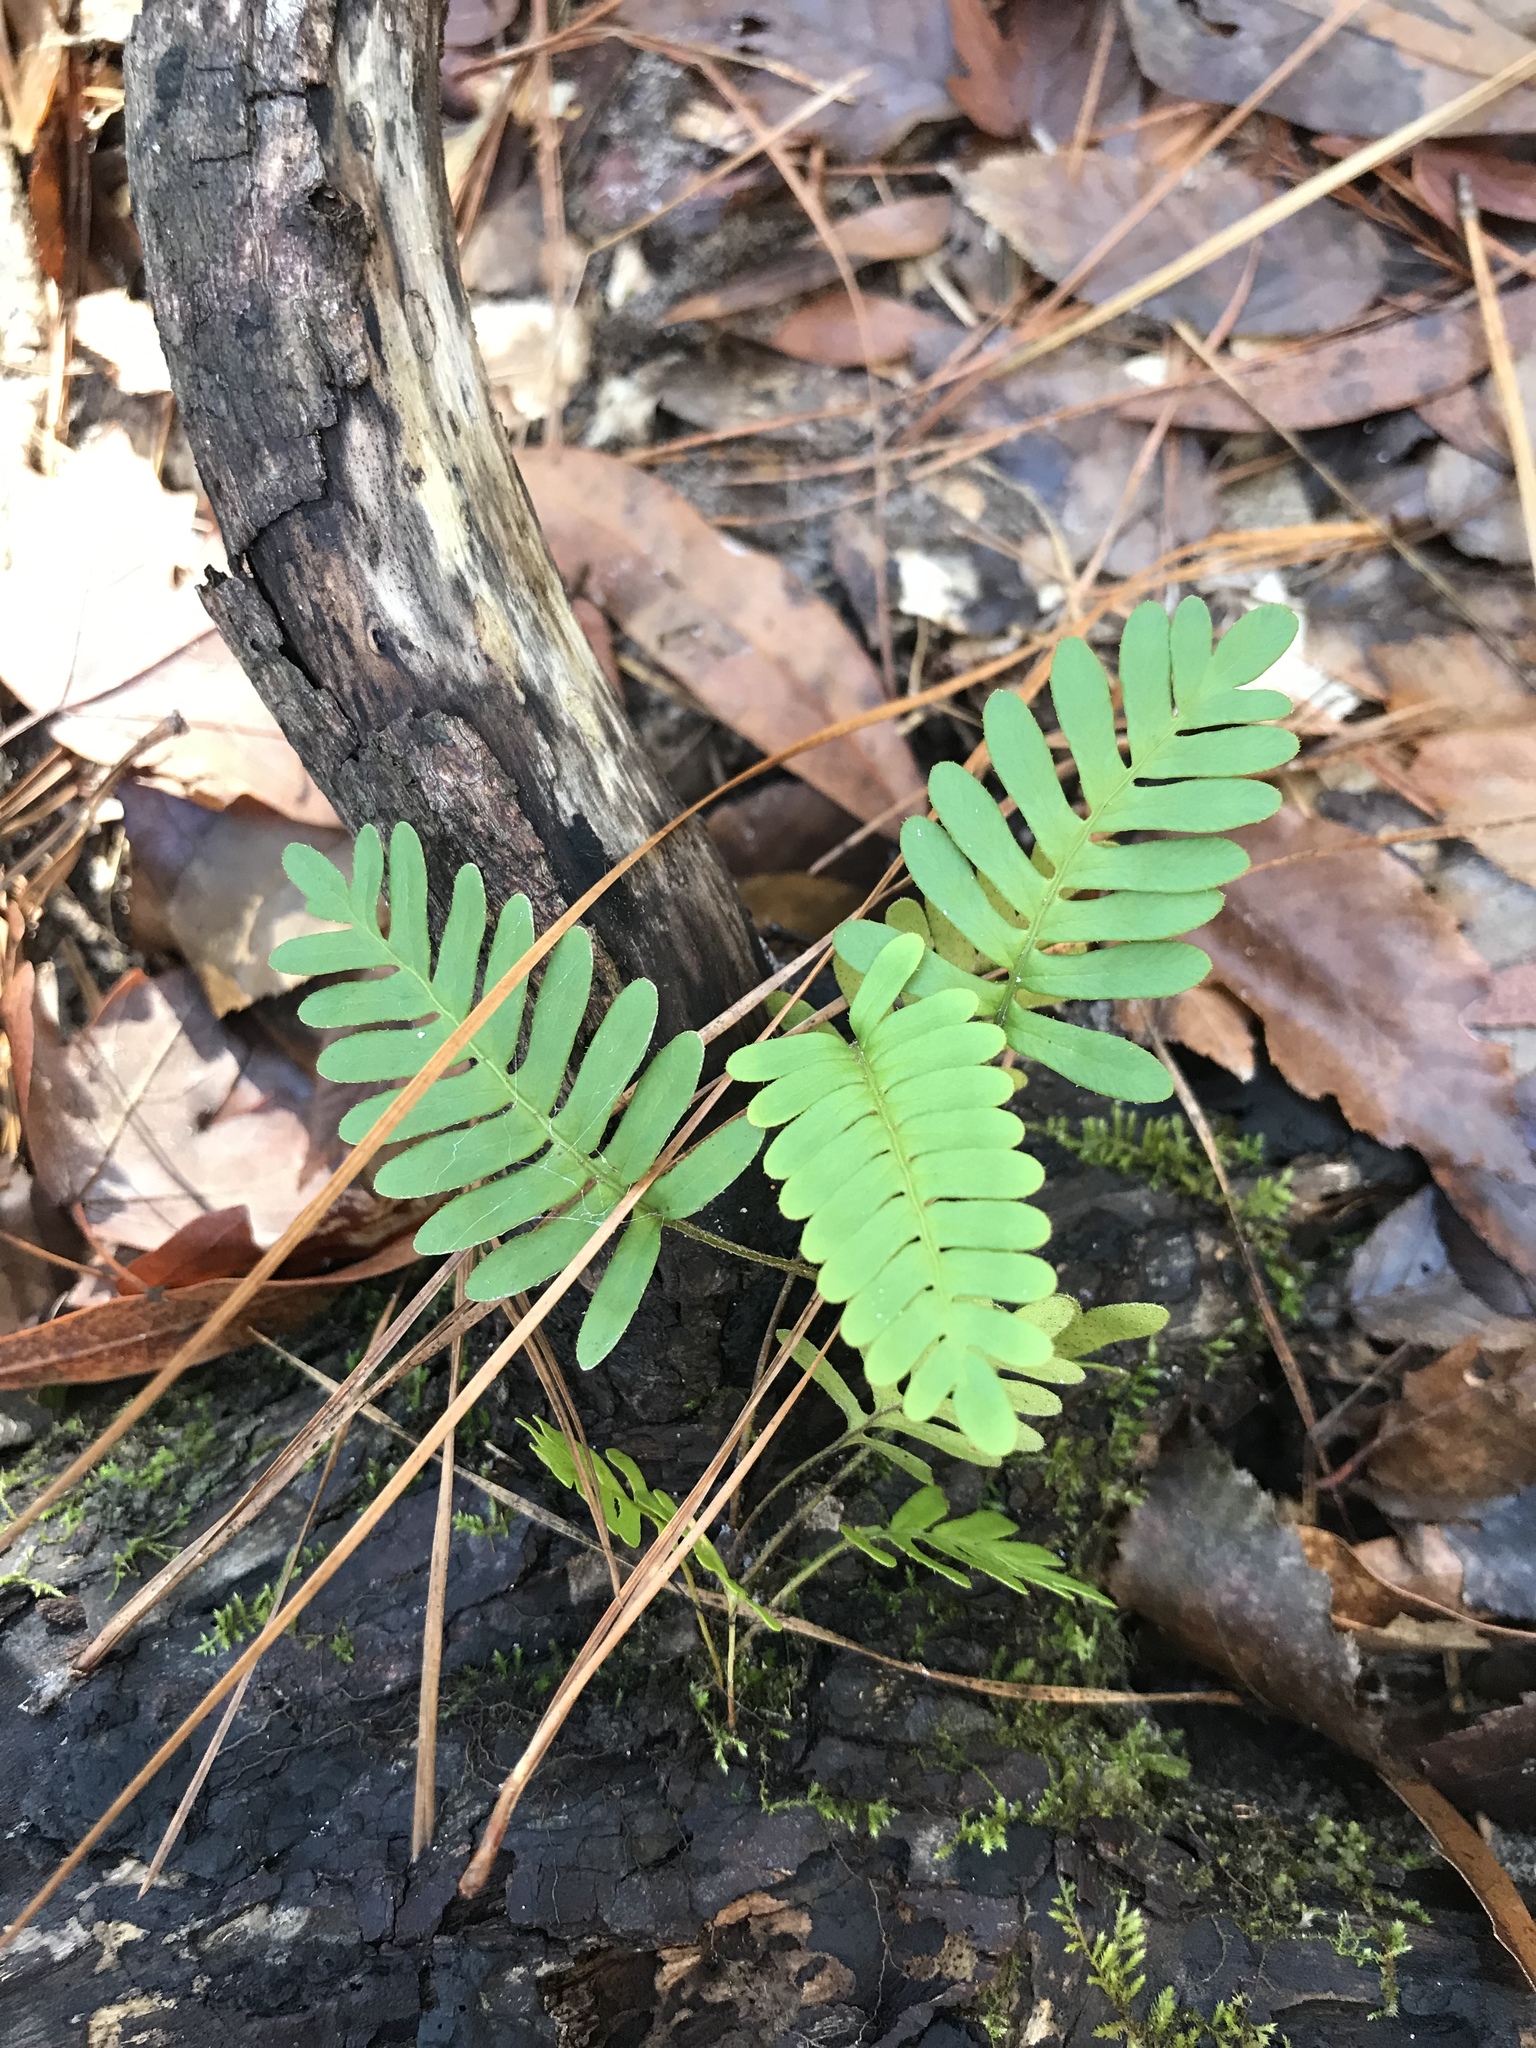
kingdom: Plantae
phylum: Tracheophyta
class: Polypodiopsida
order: Polypodiales
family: Polypodiaceae
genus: Pleopeltis
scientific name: Pleopeltis michauxiana
